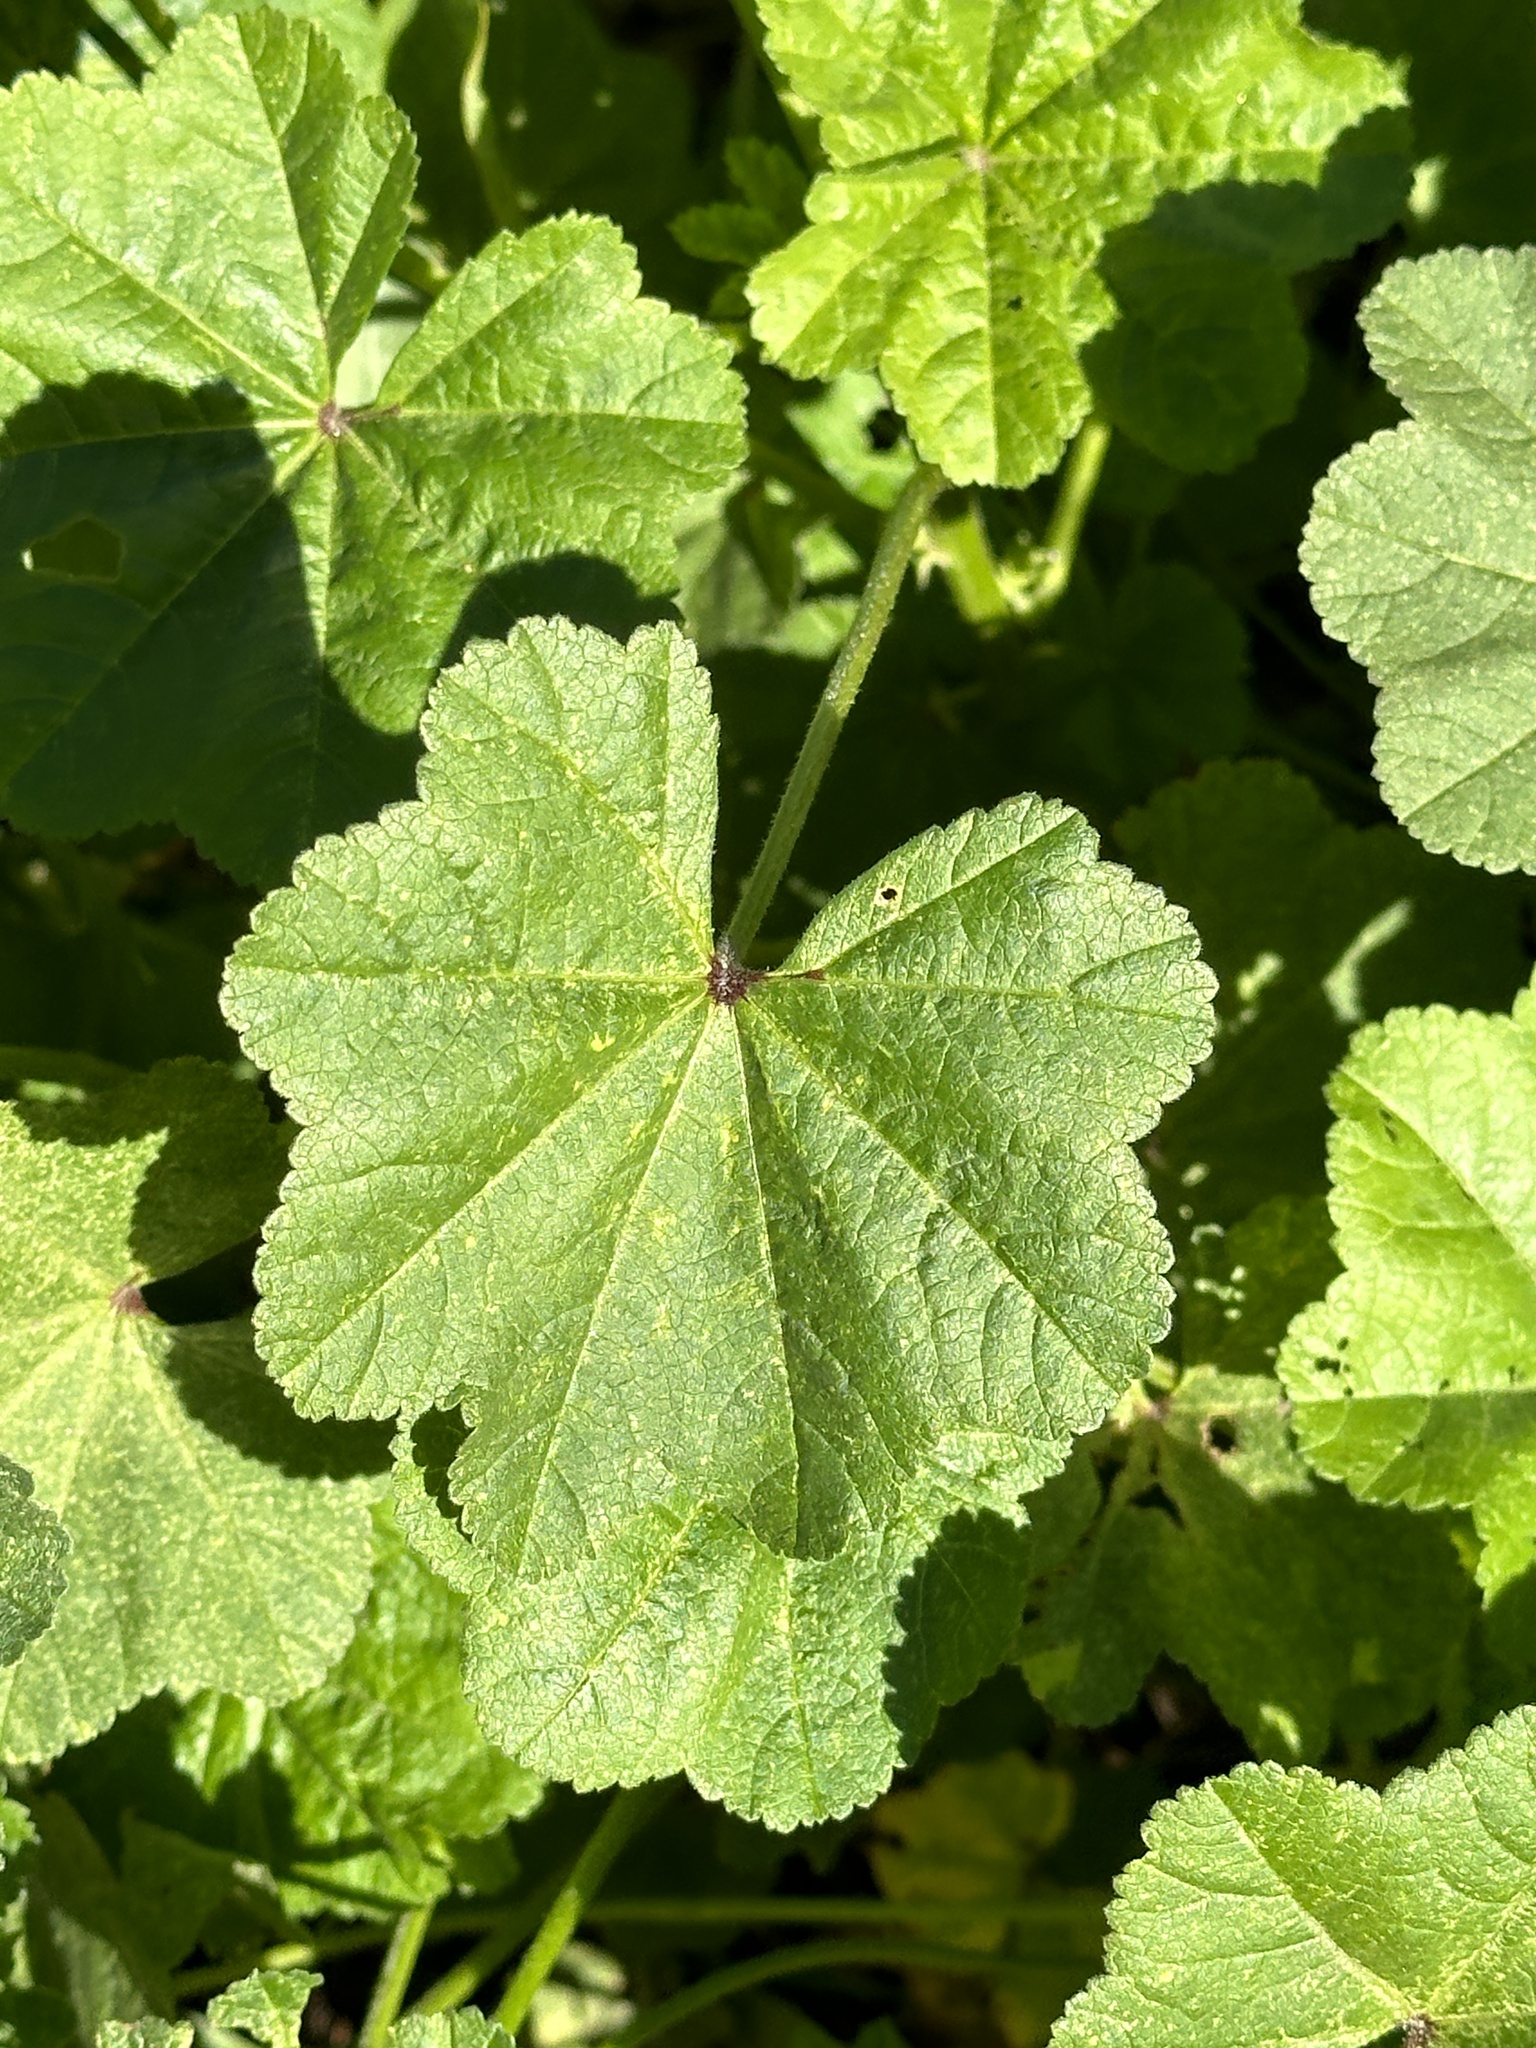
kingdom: Plantae
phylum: Tracheophyta
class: Magnoliopsida
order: Malvales
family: Malvaceae
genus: Malva
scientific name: Malva
